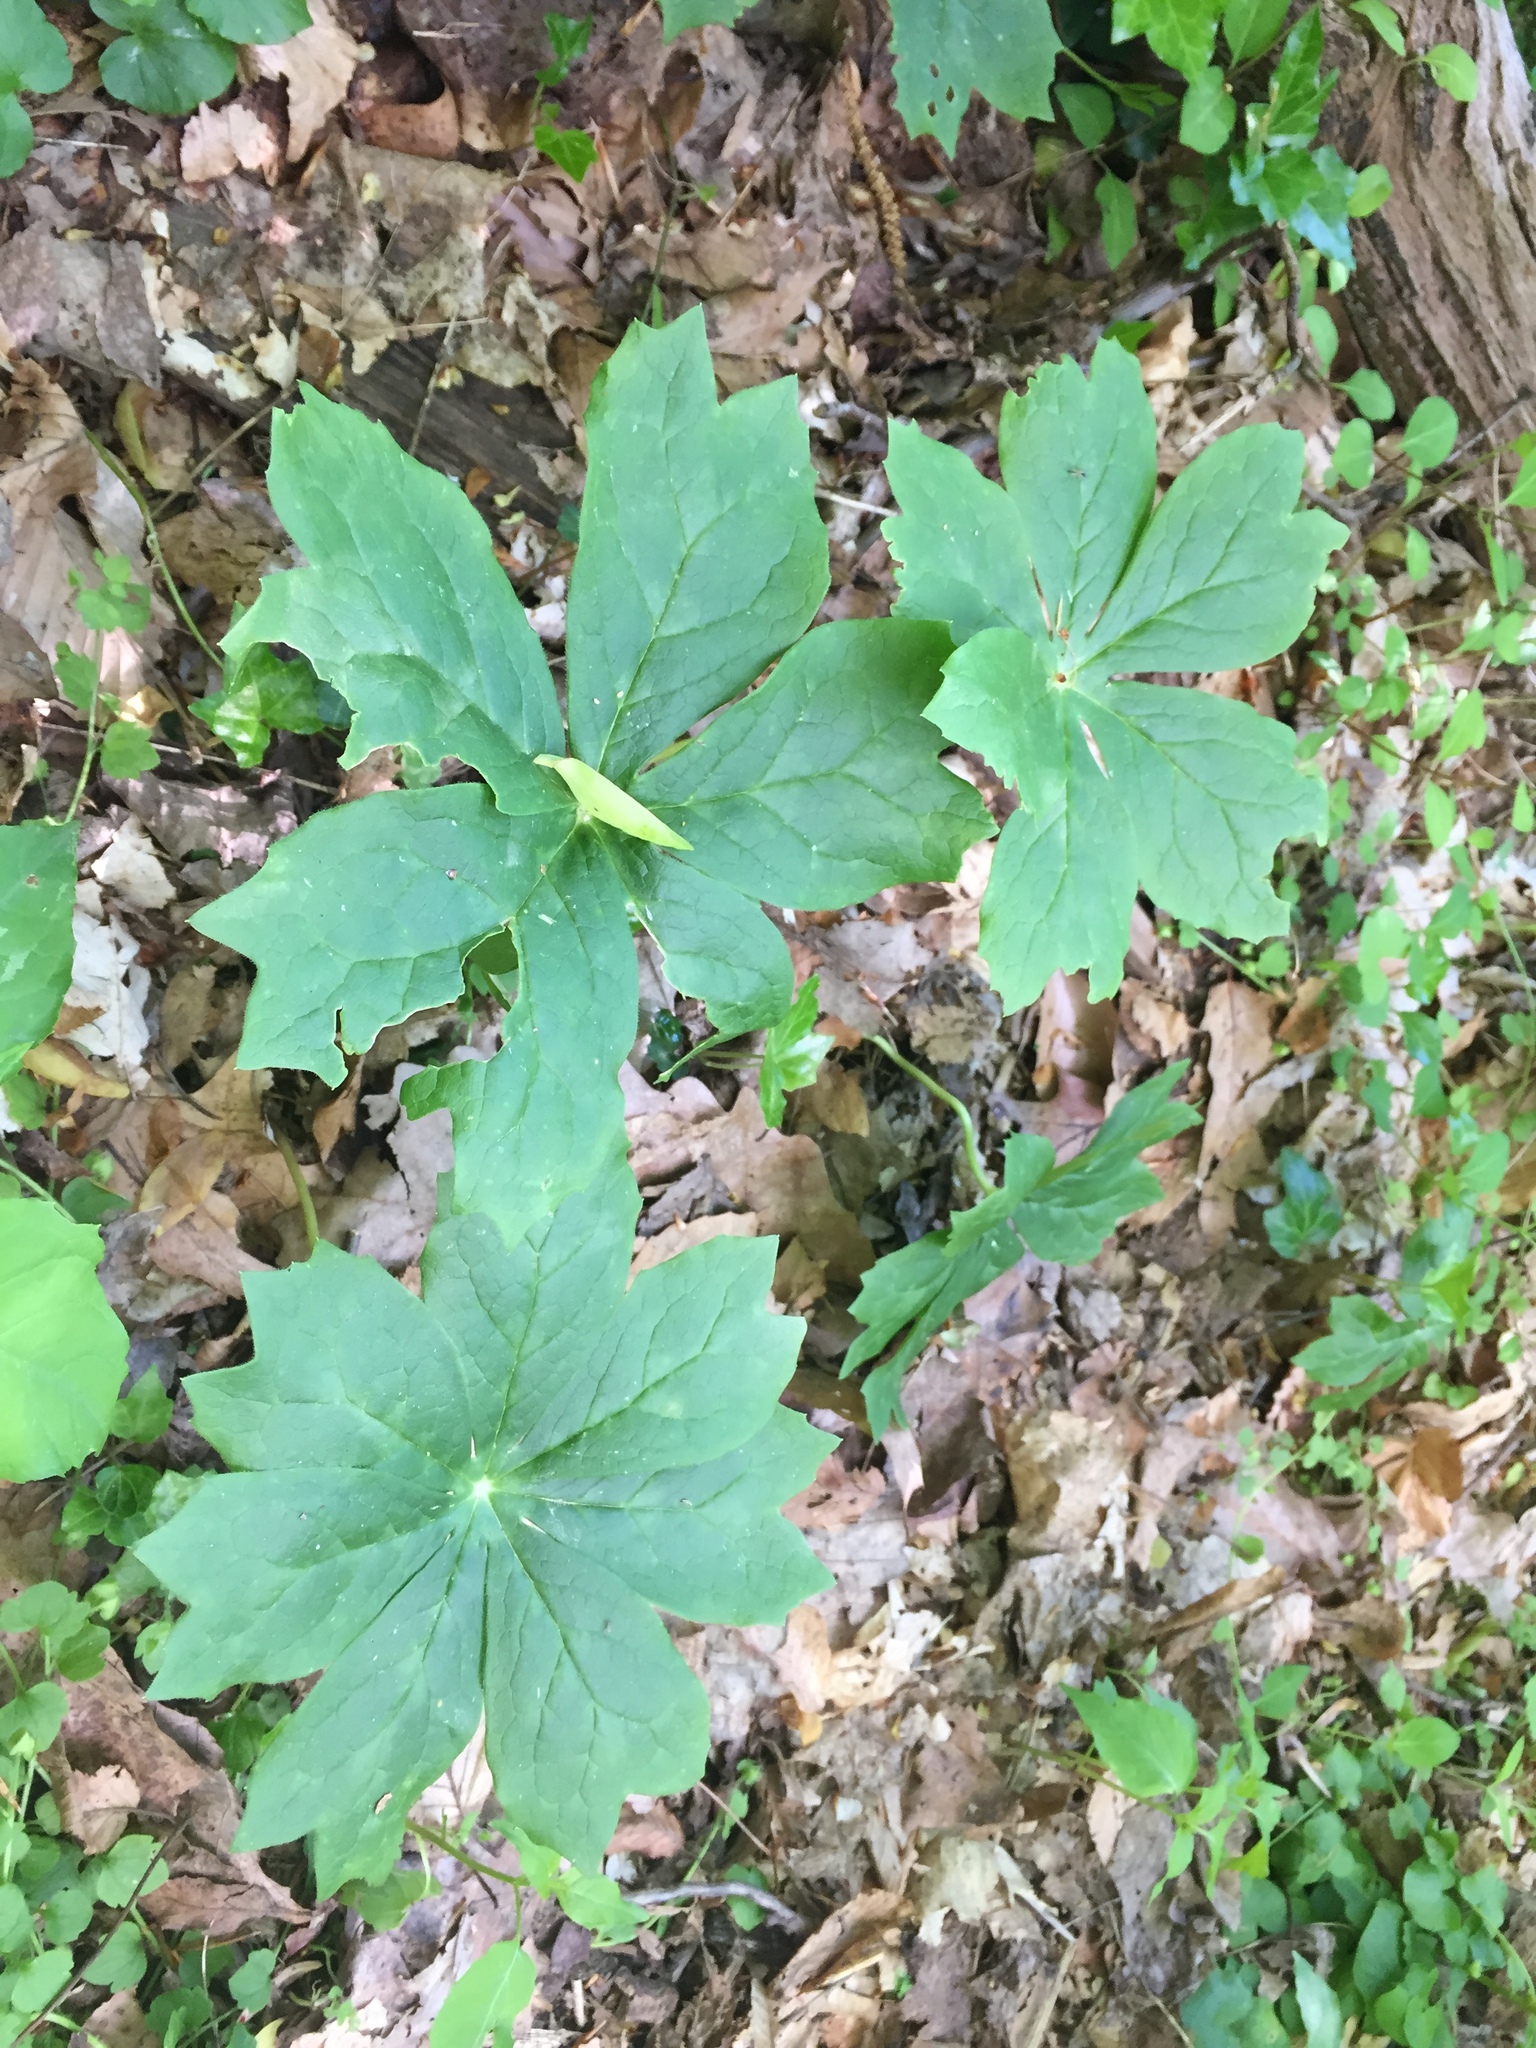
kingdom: Plantae
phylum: Tracheophyta
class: Magnoliopsida
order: Ranunculales
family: Berberidaceae
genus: Podophyllum
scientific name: Podophyllum peltatum
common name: Wild mandrake
